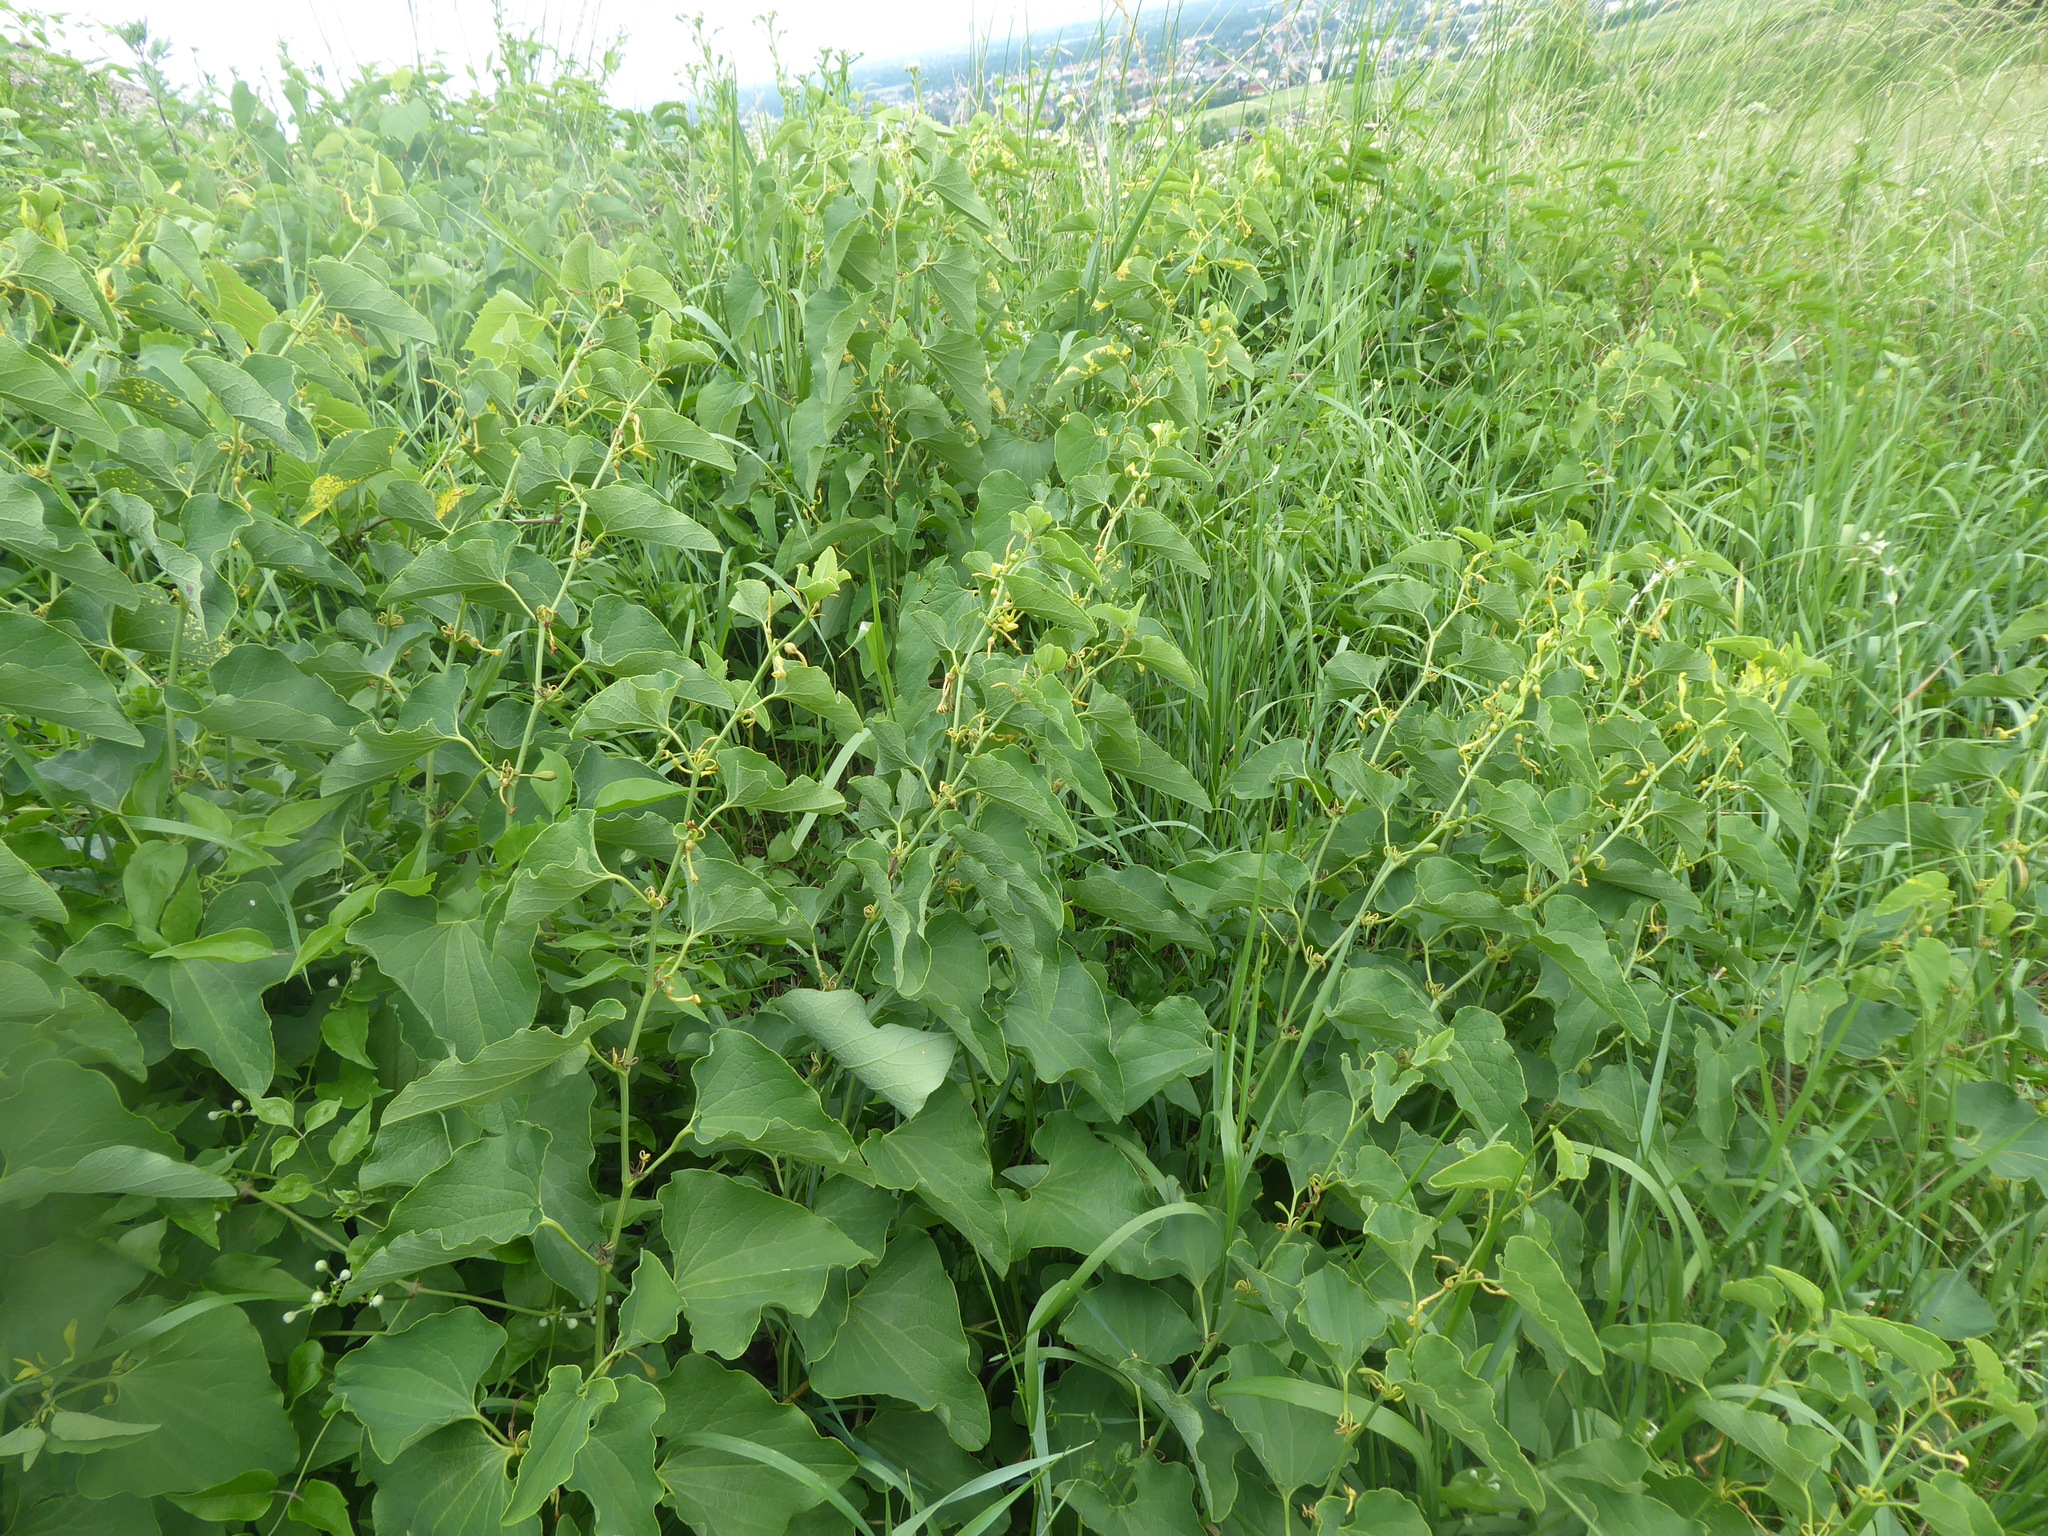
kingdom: Plantae
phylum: Tracheophyta
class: Magnoliopsida
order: Piperales
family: Aristolochiaceae
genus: Aristolochia
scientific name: Aristolochia clematitis
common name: Birthwort
